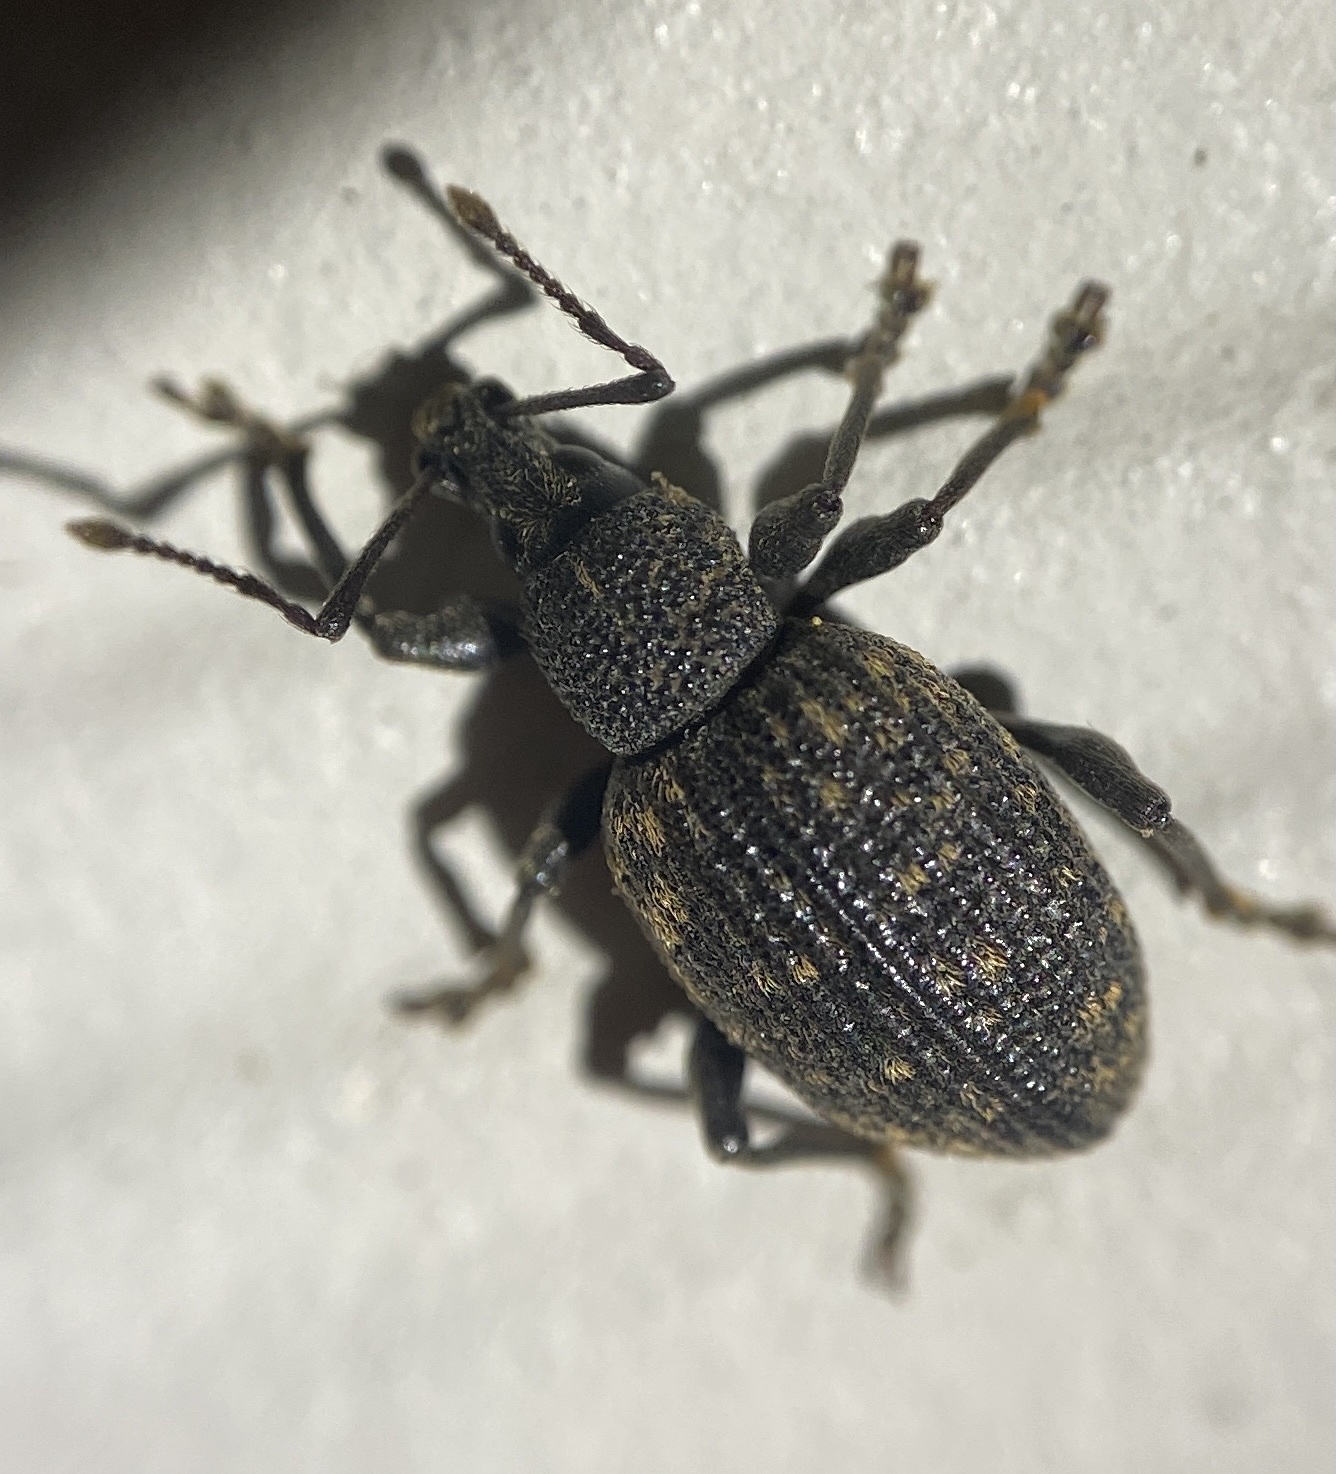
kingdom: Animalia
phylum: Arthropoda
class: Insecta
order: Coleoptera
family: Curculionidae
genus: Otiorhynchus
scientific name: Otiorhynchus sulcatus
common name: Black vine weevil
